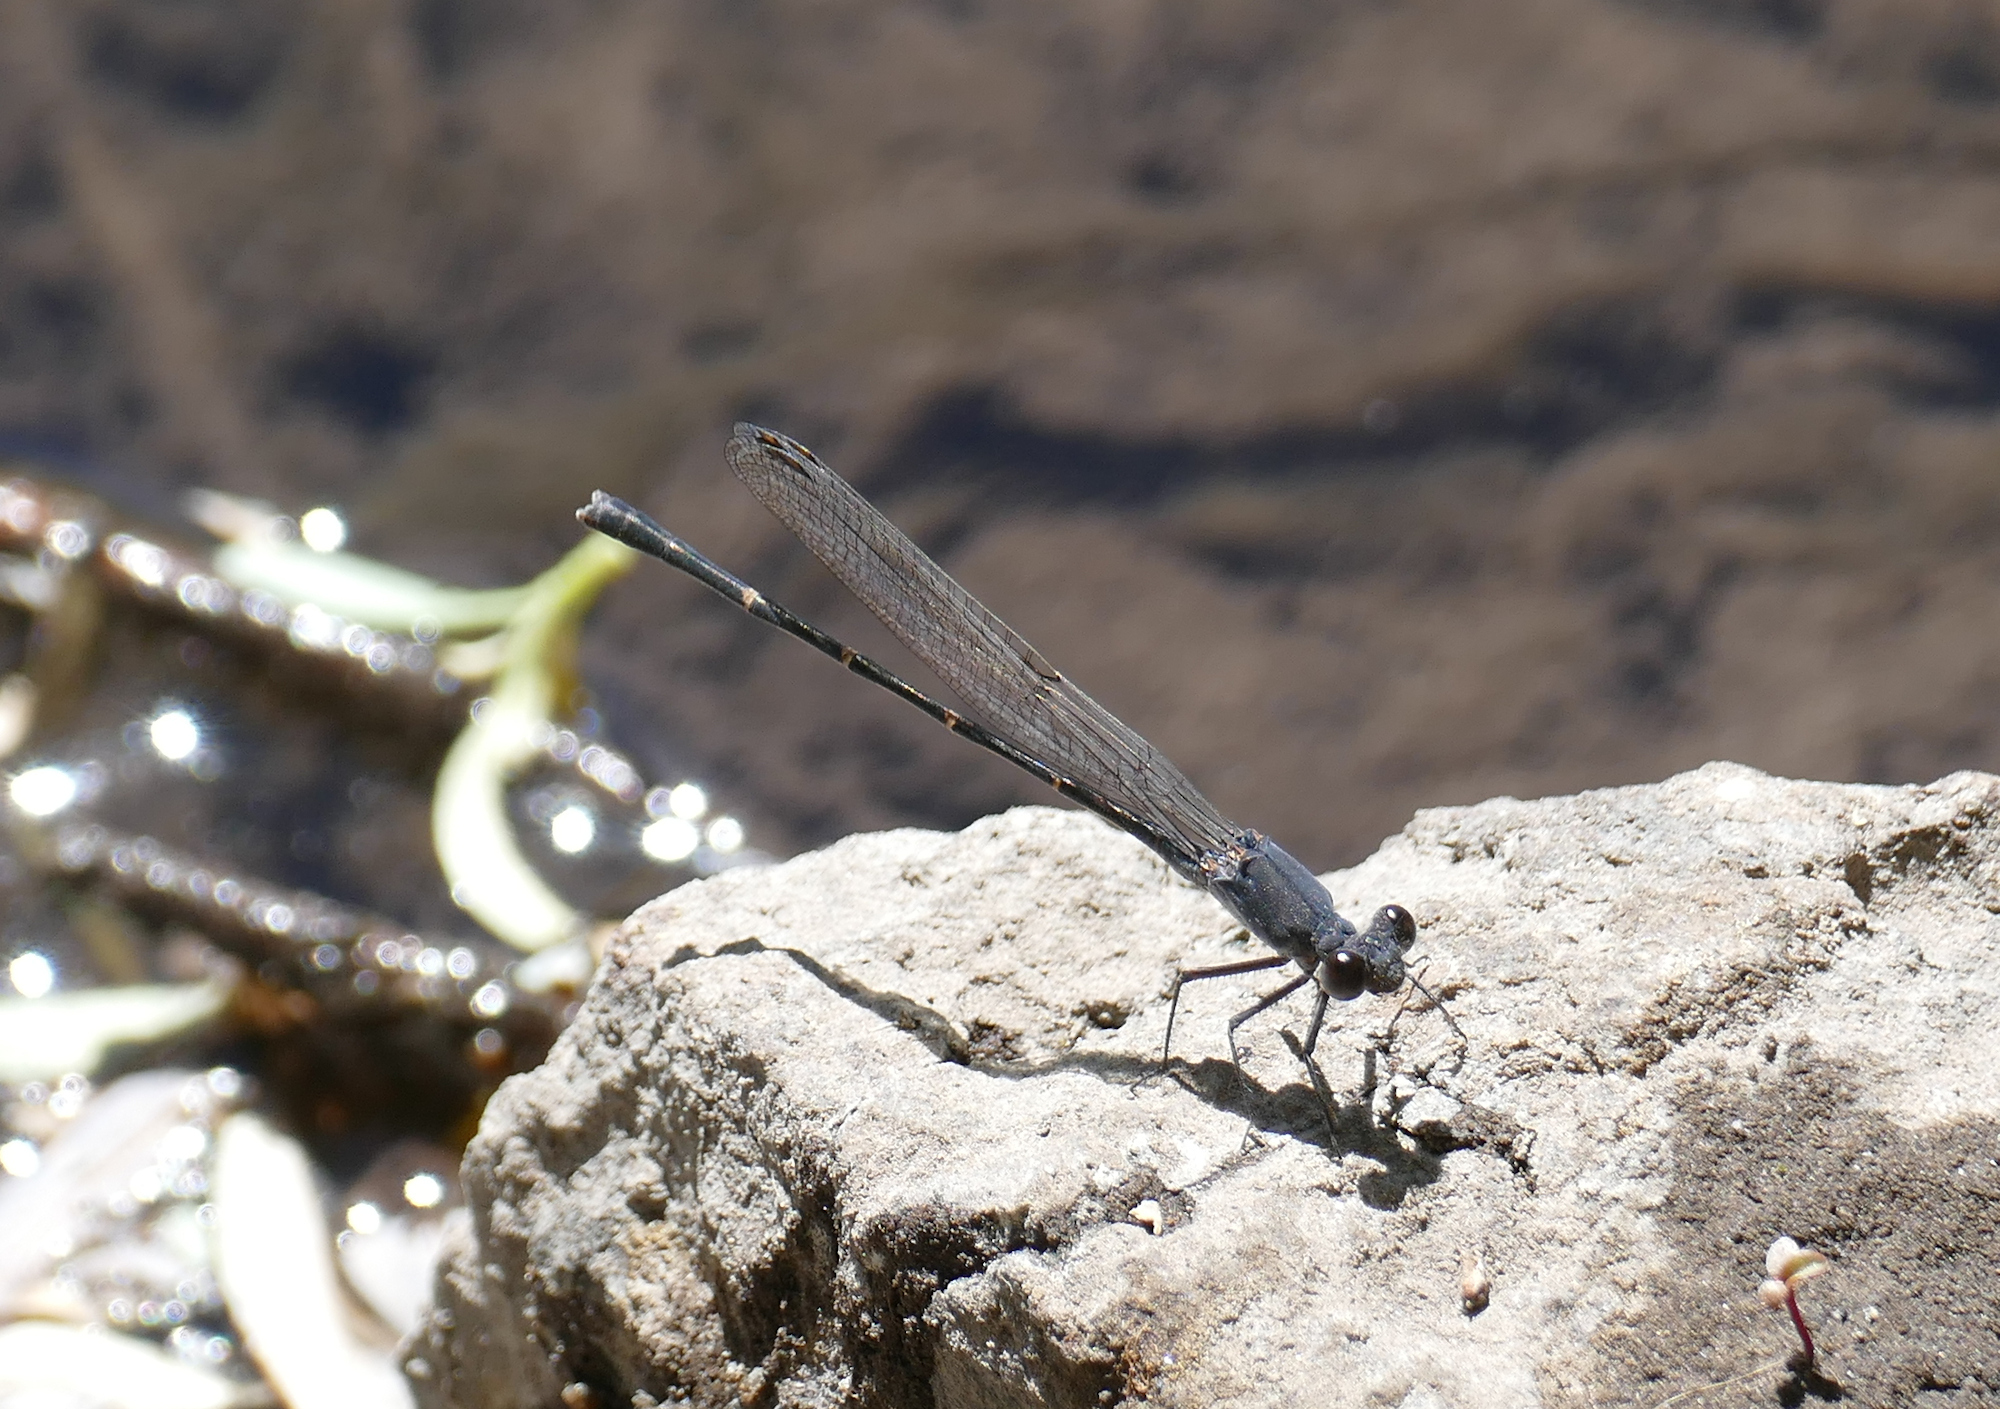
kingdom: Animalia
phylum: Arthropoda
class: Insecta
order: Odonata
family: Coenagrionidae
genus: Argia
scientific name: Argia lugens
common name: Sooty dancer
